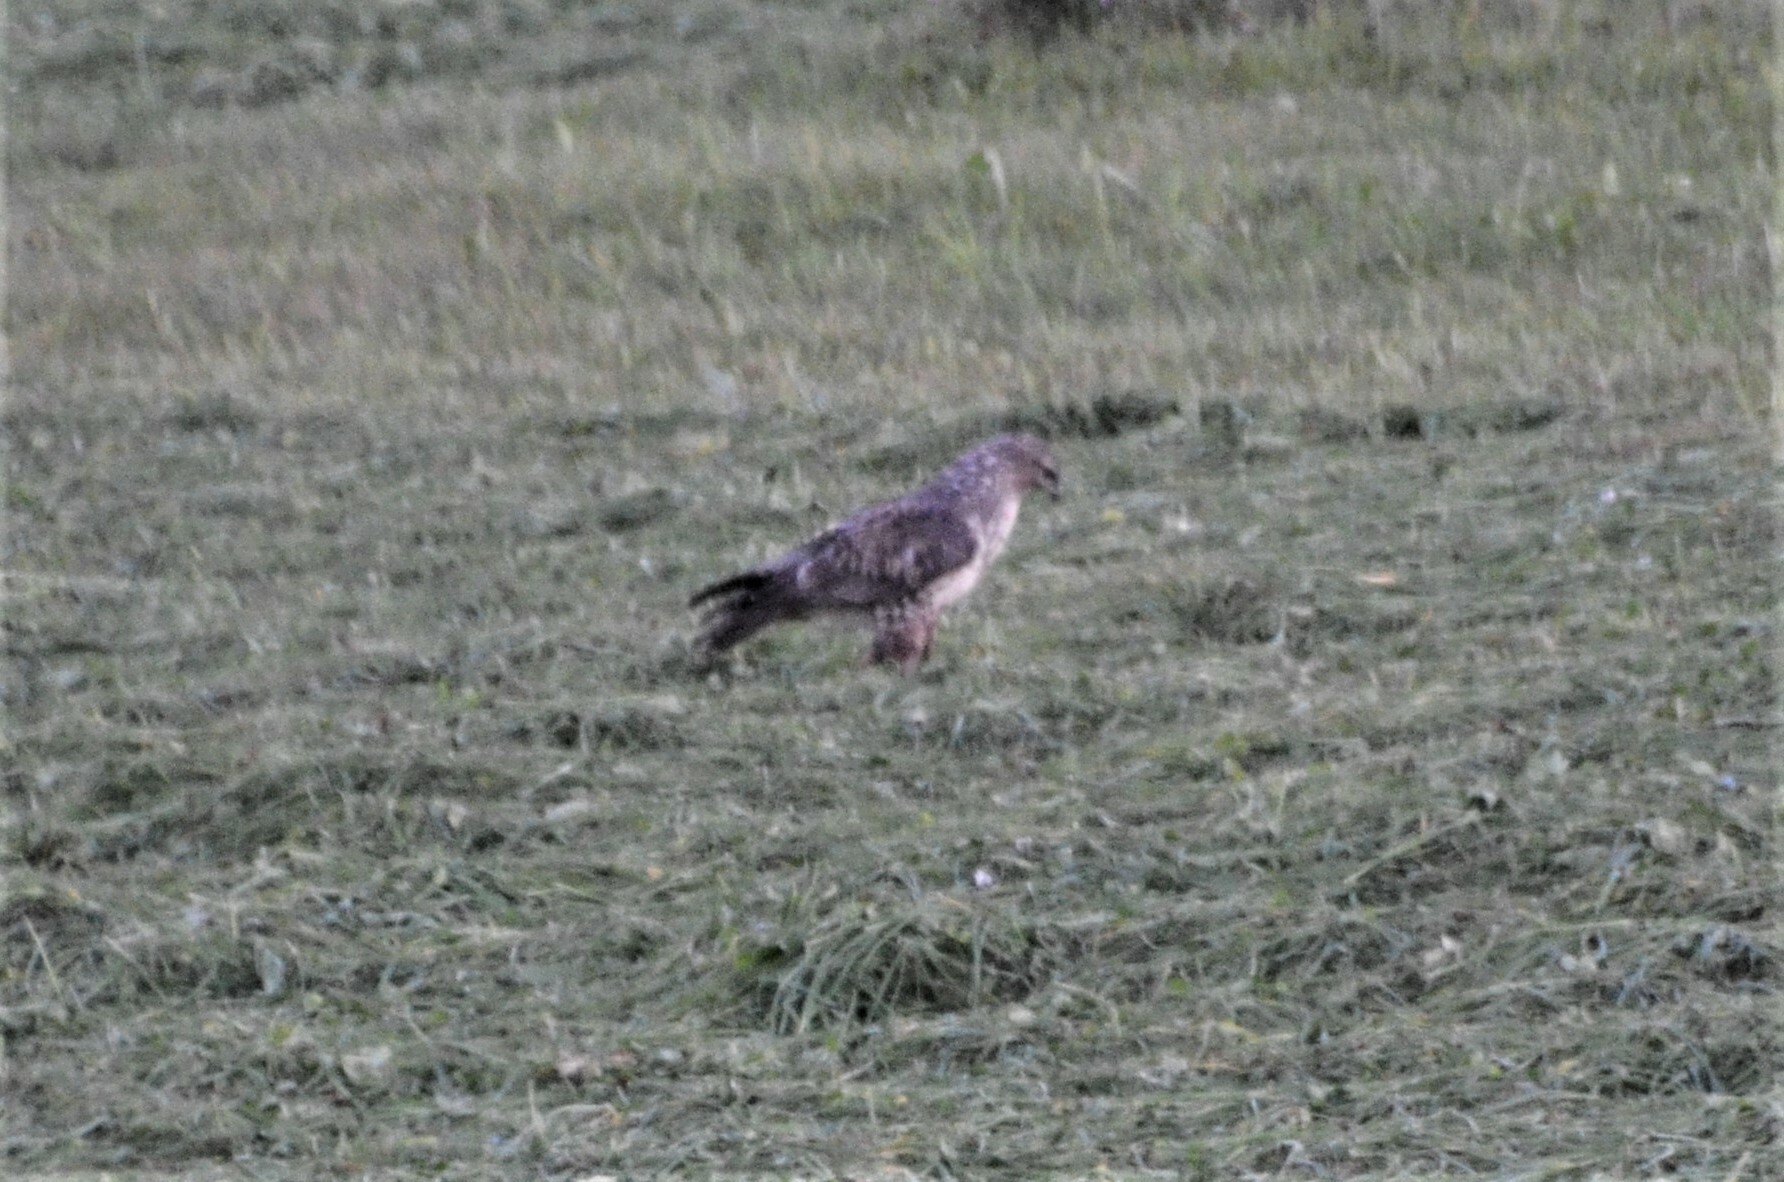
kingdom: Animalia
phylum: Chordata
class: Aves
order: Accipitriformes
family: Accipitridae
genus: Buteo
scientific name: Buteo buteo
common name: Common buzzard
